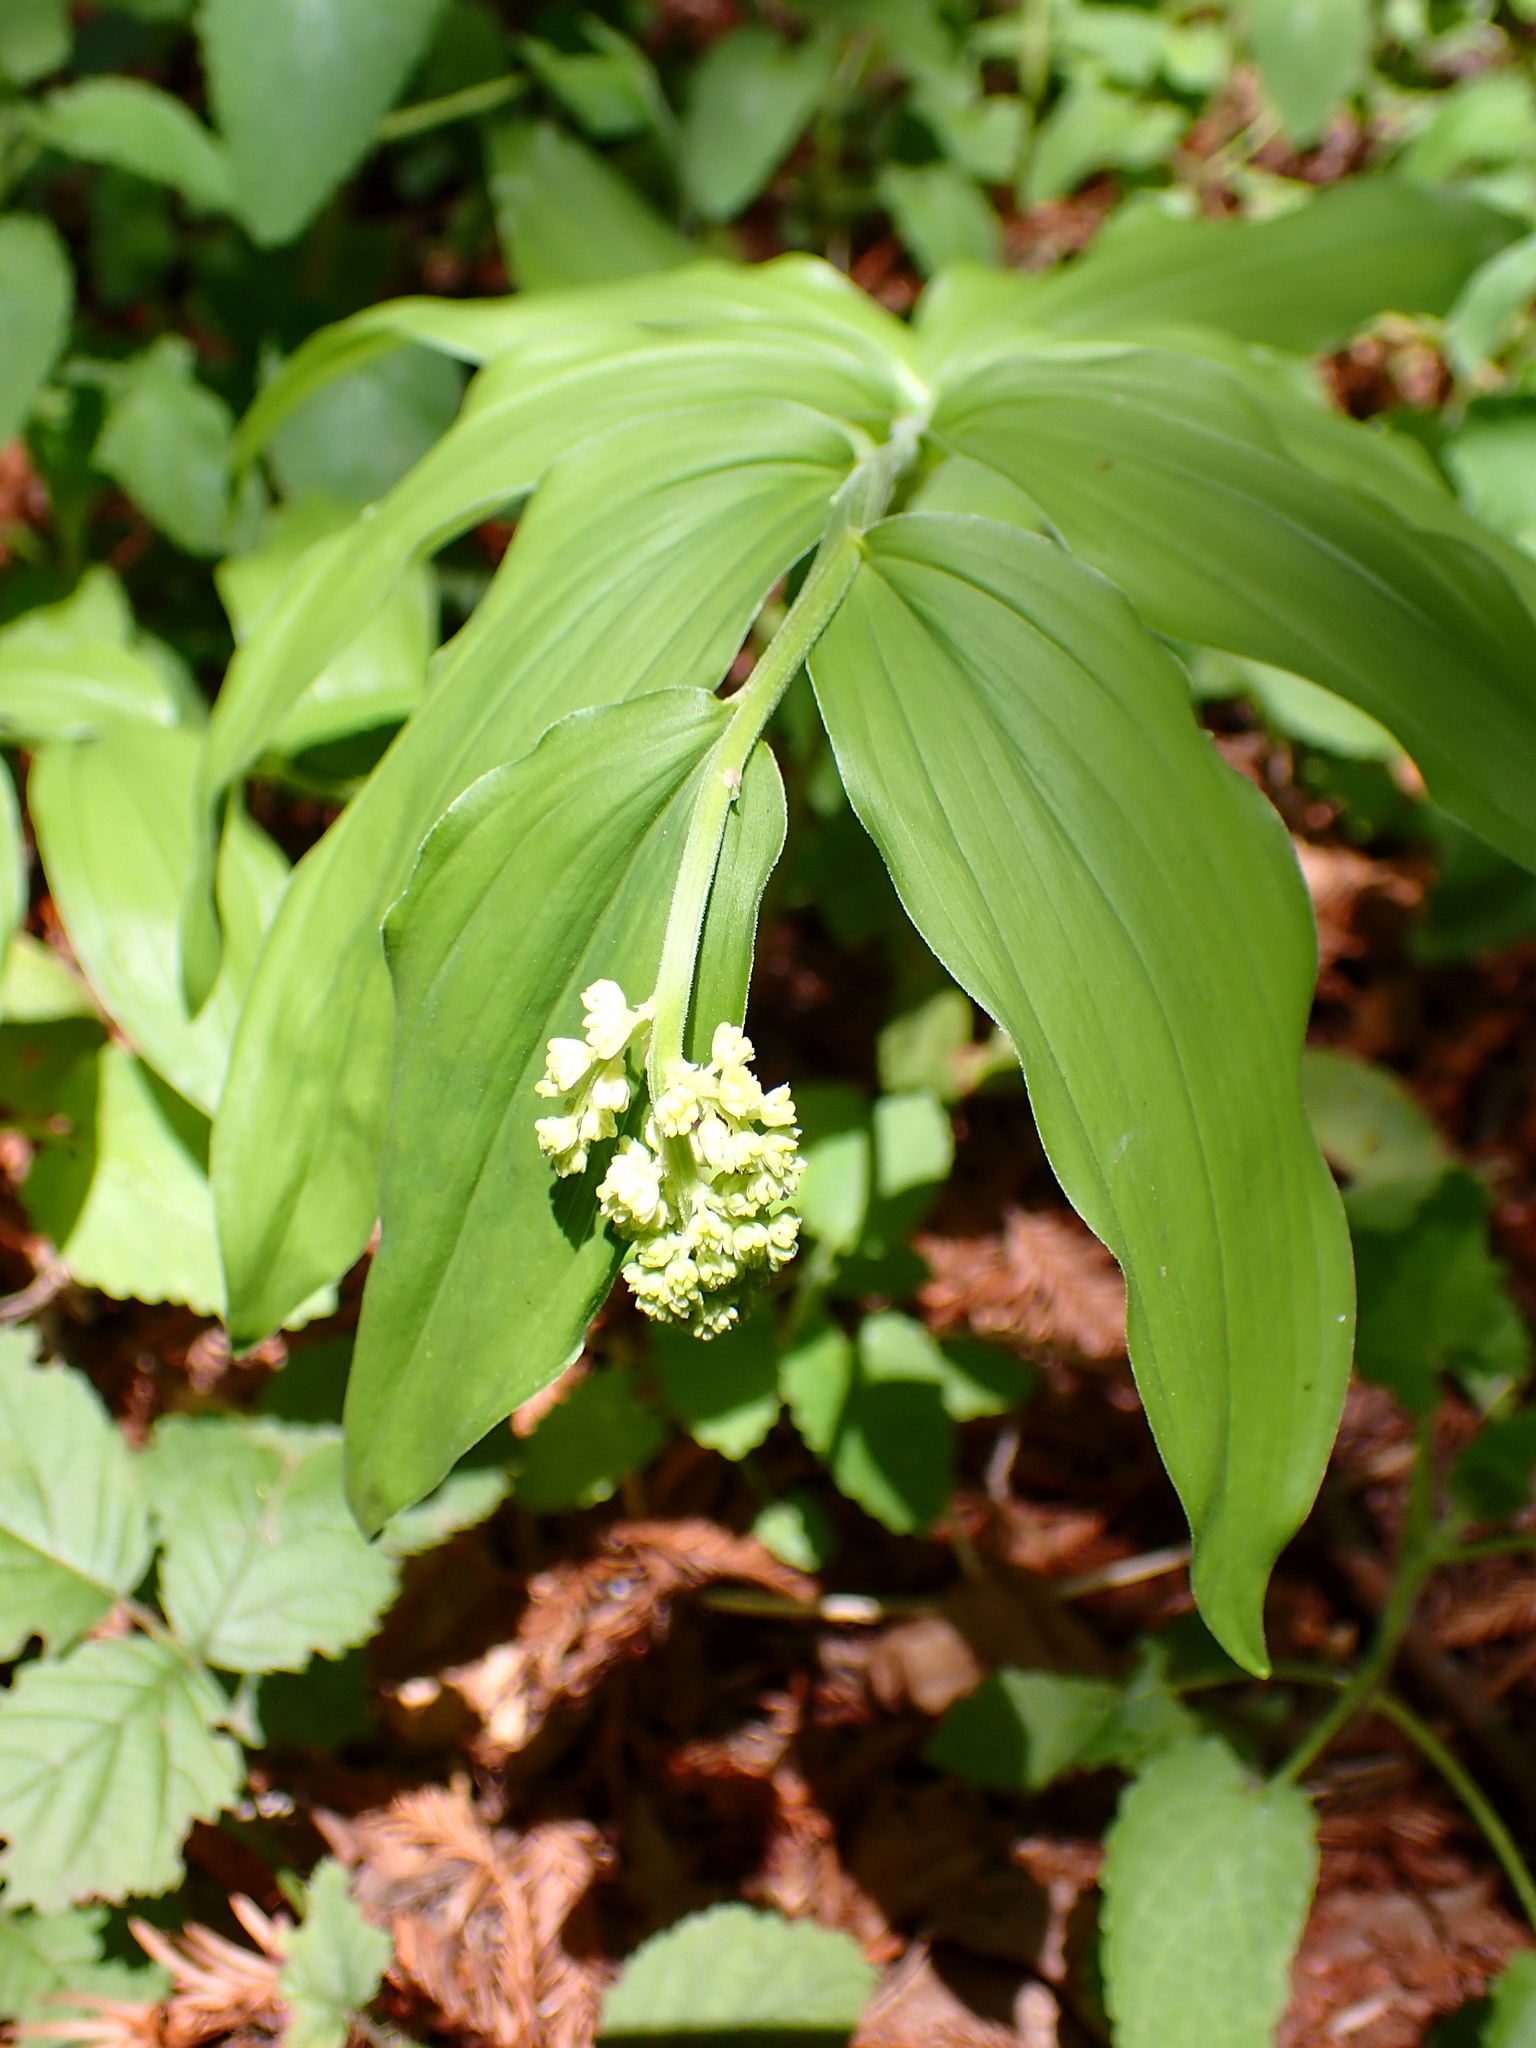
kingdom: Plantae
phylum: Tracheophyta
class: Liliopsida
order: Asparagales
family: Asparagaceae
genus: Maianthemum
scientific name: Maianthemum racemosum
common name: False spikenard
